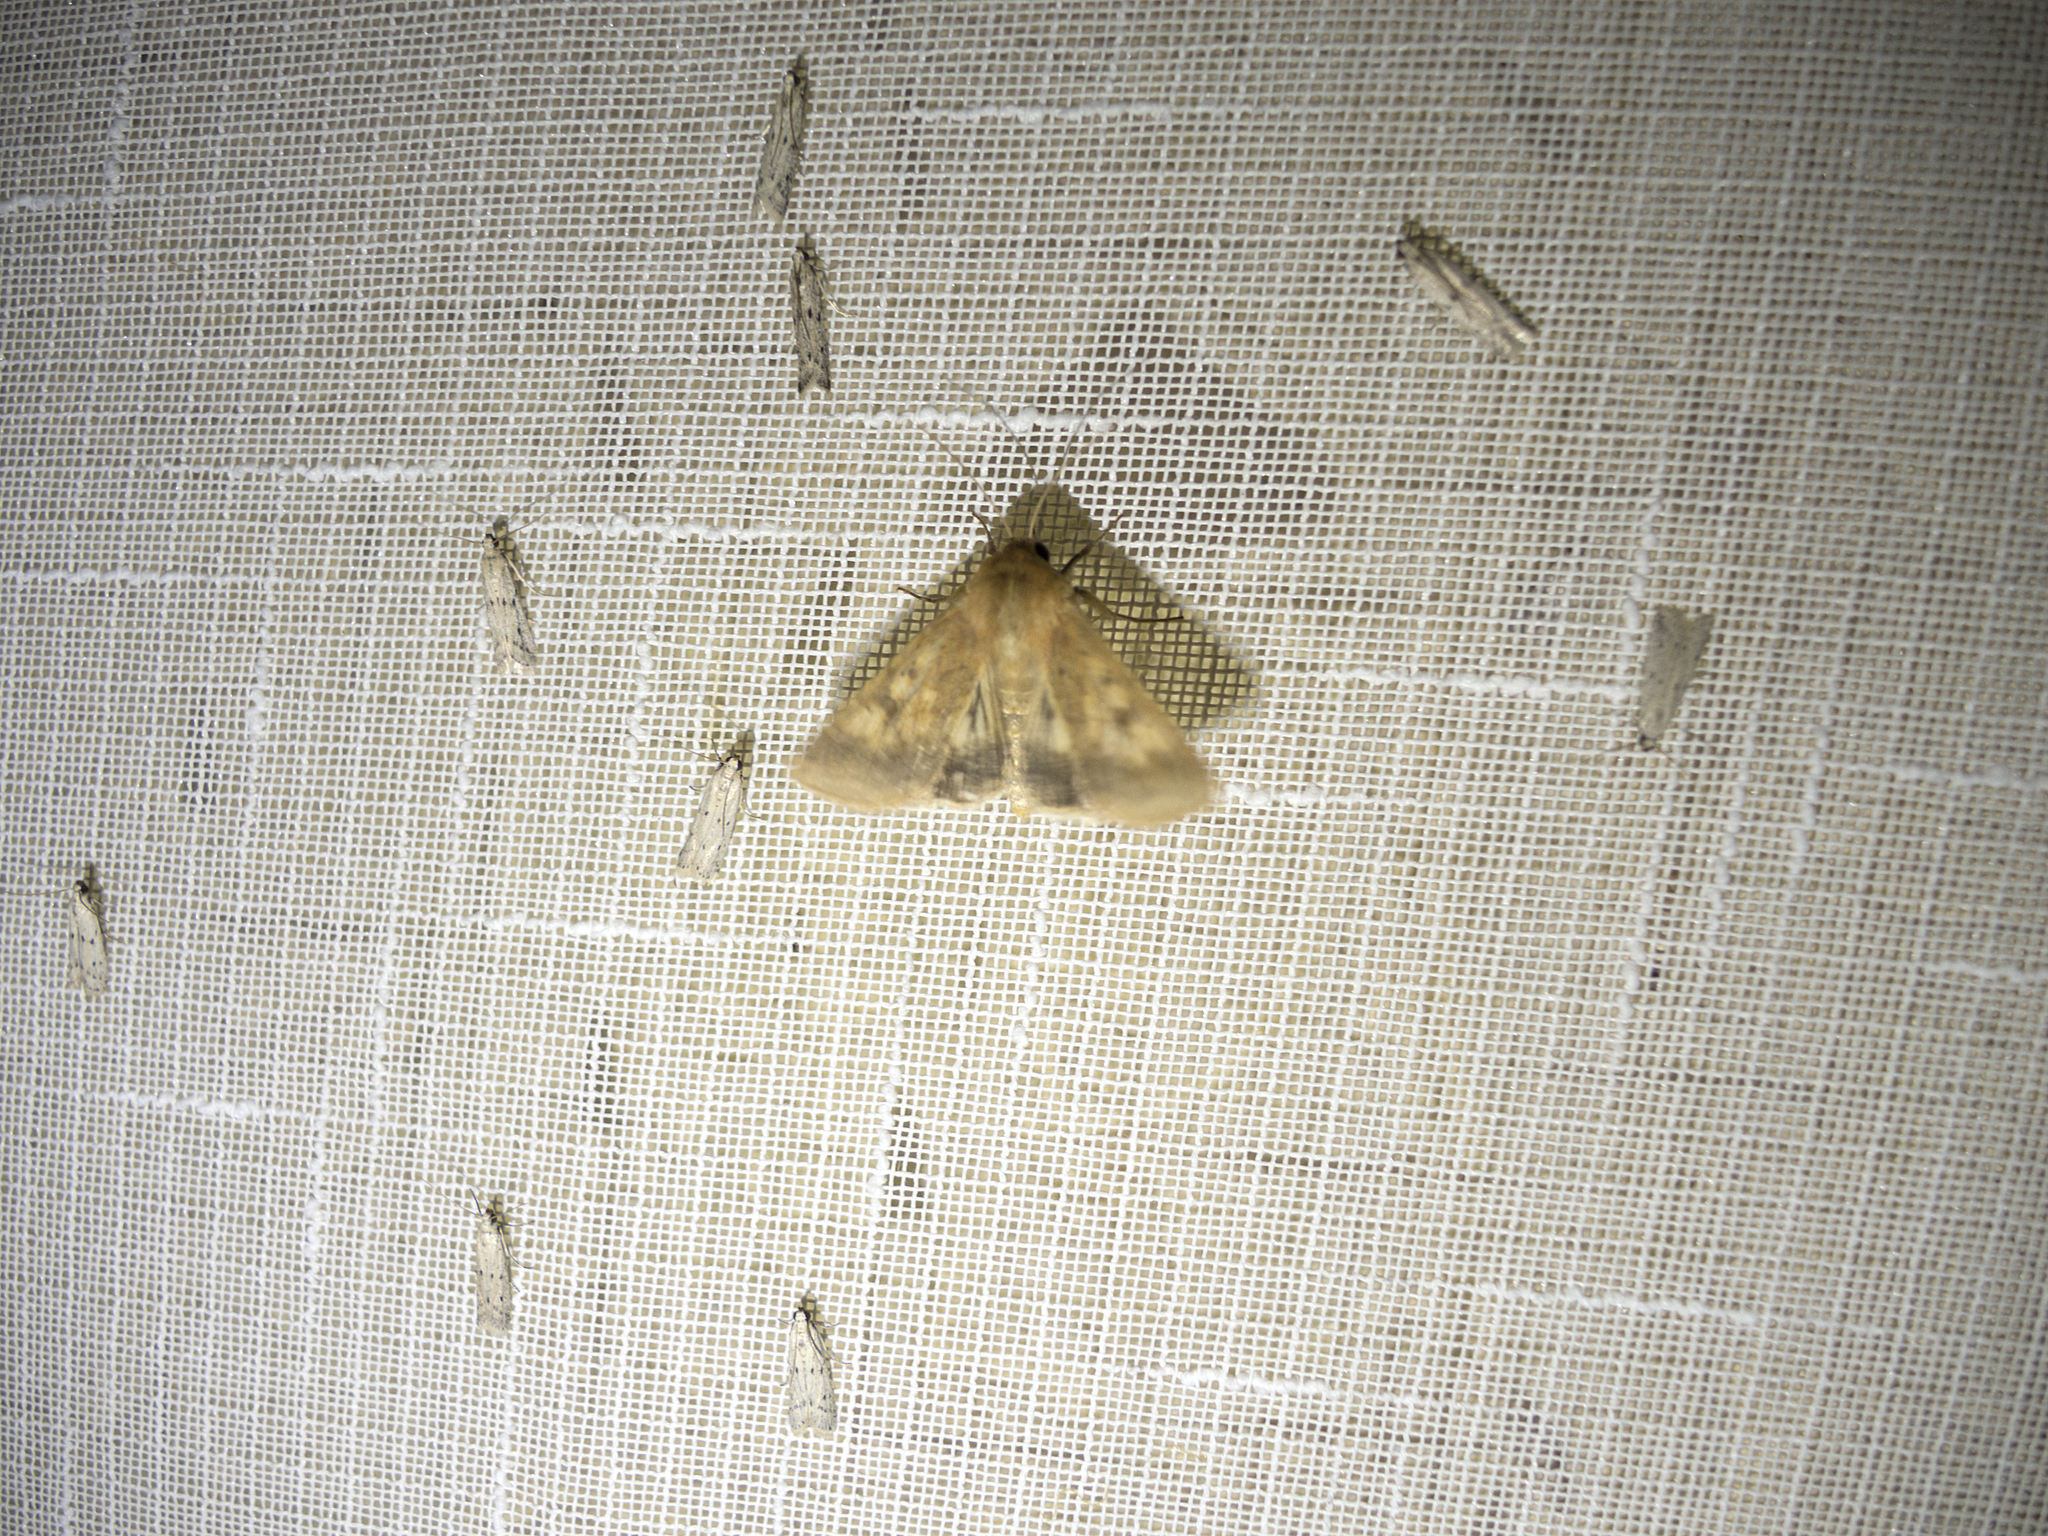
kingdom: Animalia
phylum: Arthropoda
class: Insecta
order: Lepidoptera
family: Noctuidae
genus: Helicoverpa
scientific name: Helicoverpa armigera
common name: Cotton bollworm
